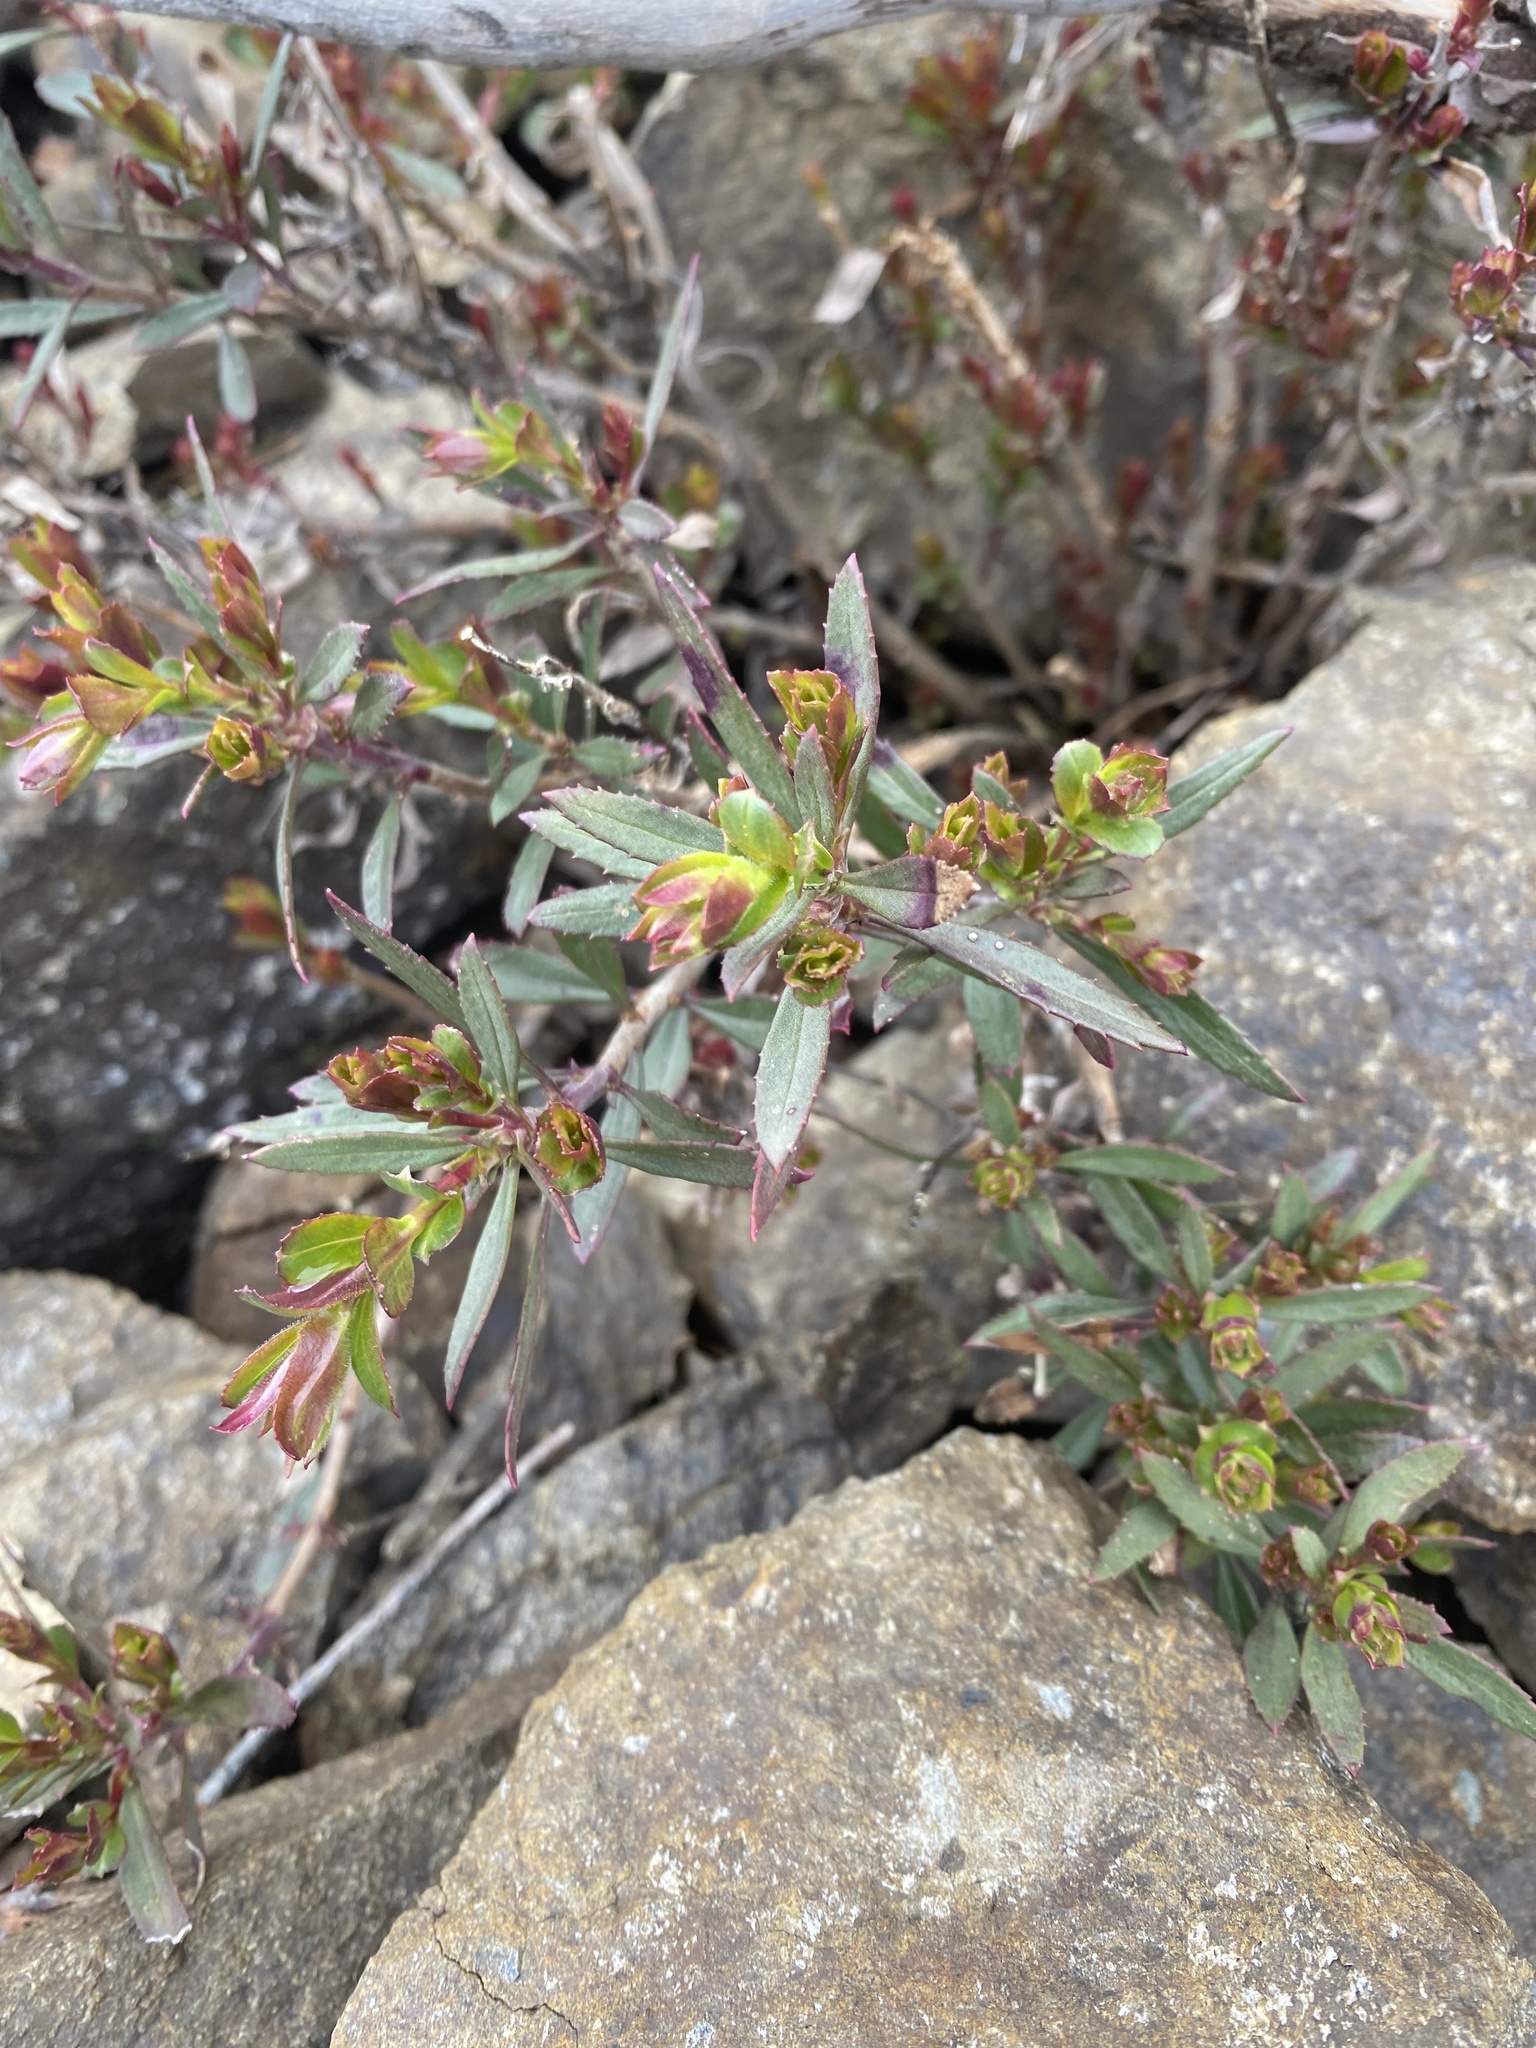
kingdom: Plantae
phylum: Tracheophyta
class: Magnoliopsida
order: Lamiales
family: Plantaginaceae
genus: Penstemon
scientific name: Penstemon fruticosus
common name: Bush penstemon
